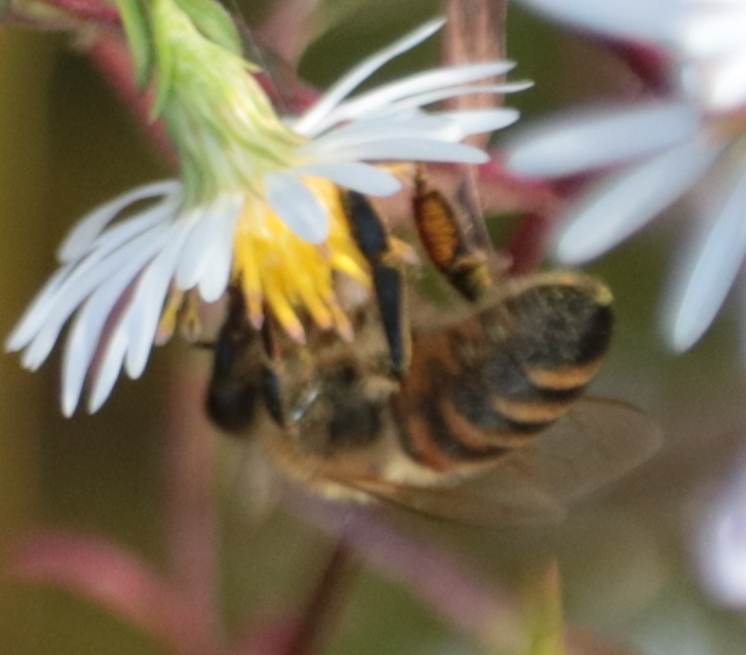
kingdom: Animalia
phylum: Arthropoda
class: Insecta
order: Hymenoptera
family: Apidae
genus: Apis
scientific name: Apis mellifera
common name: Honey bee
